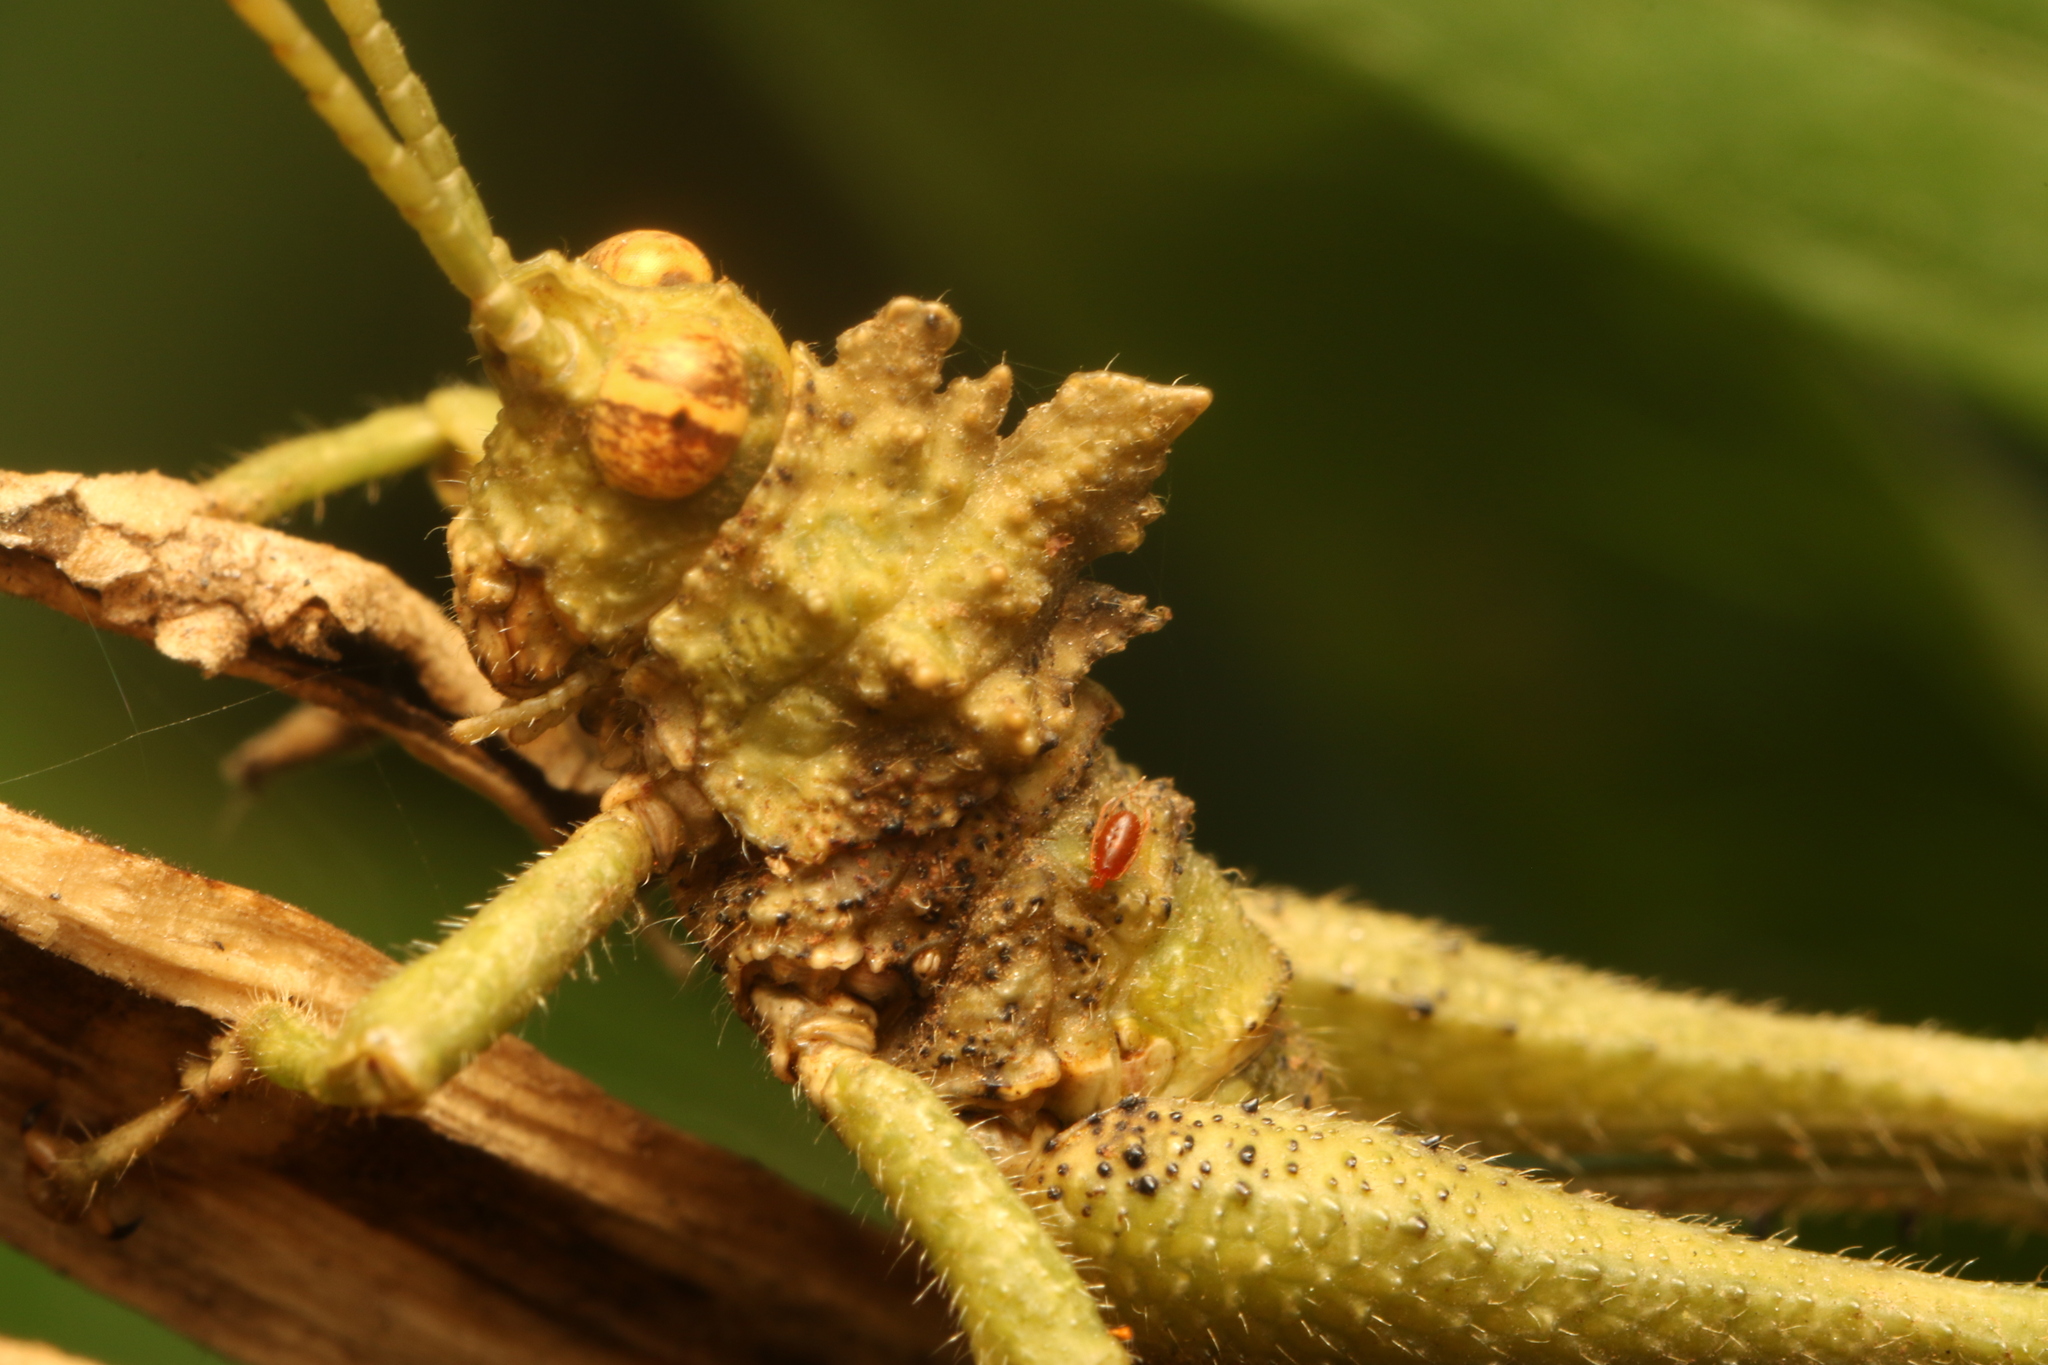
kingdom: Animalia
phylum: Arthropoda
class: Insecta
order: Orthoptera
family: Acrididae
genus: Pycnosarcus
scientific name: Pycnosarcus atavus
